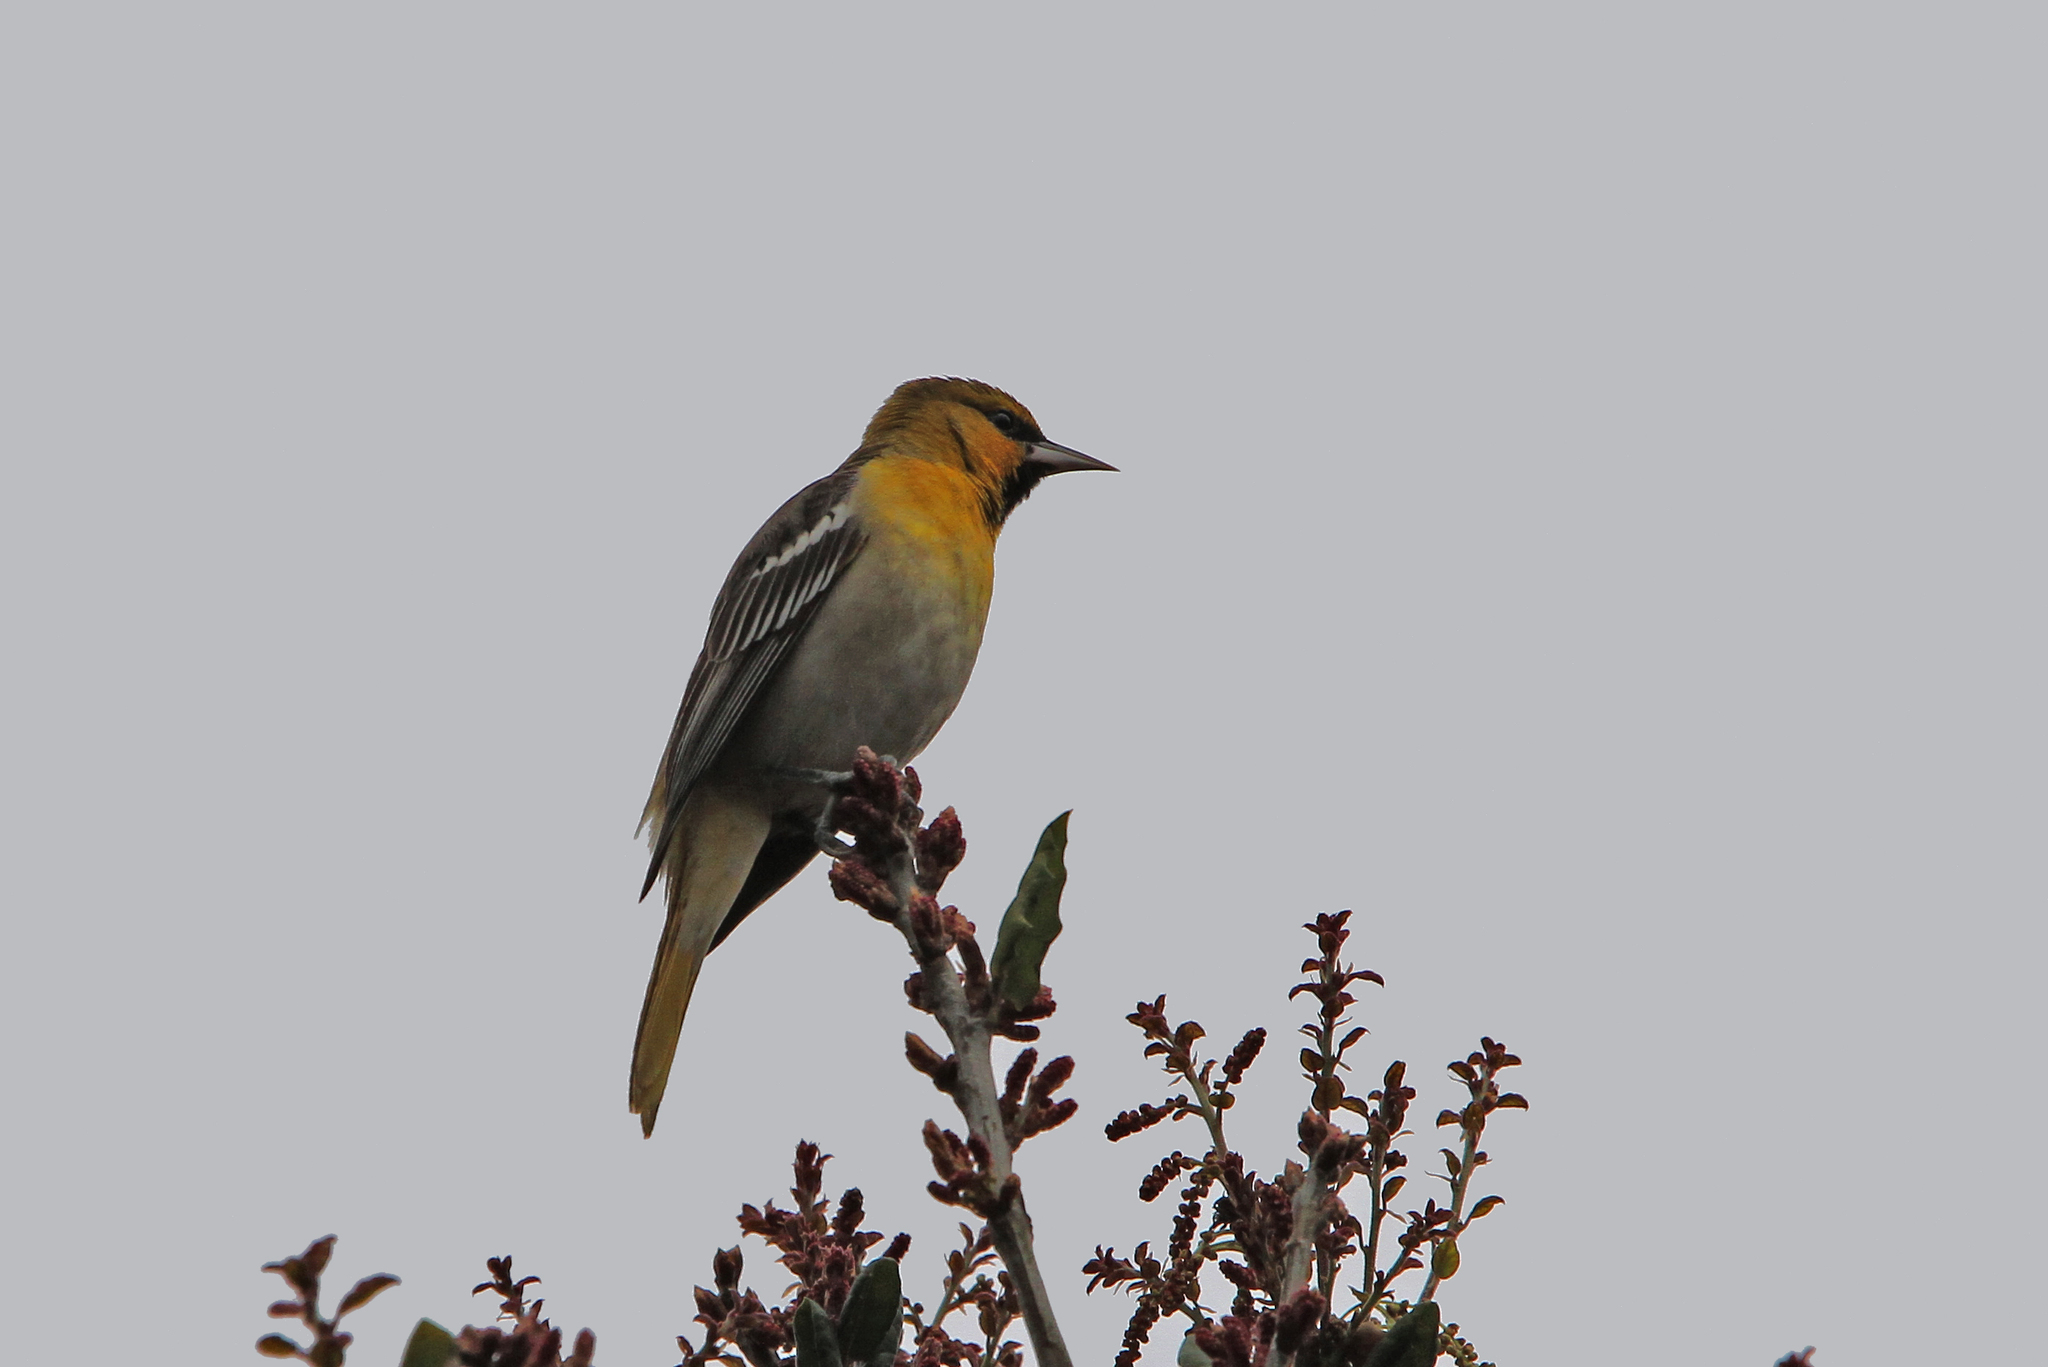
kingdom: Animalia
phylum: Chordata
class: Aves
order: Passeriformes
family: Icteridae
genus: Icterus
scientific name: Icterus bullockii
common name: Bullock's oriole
